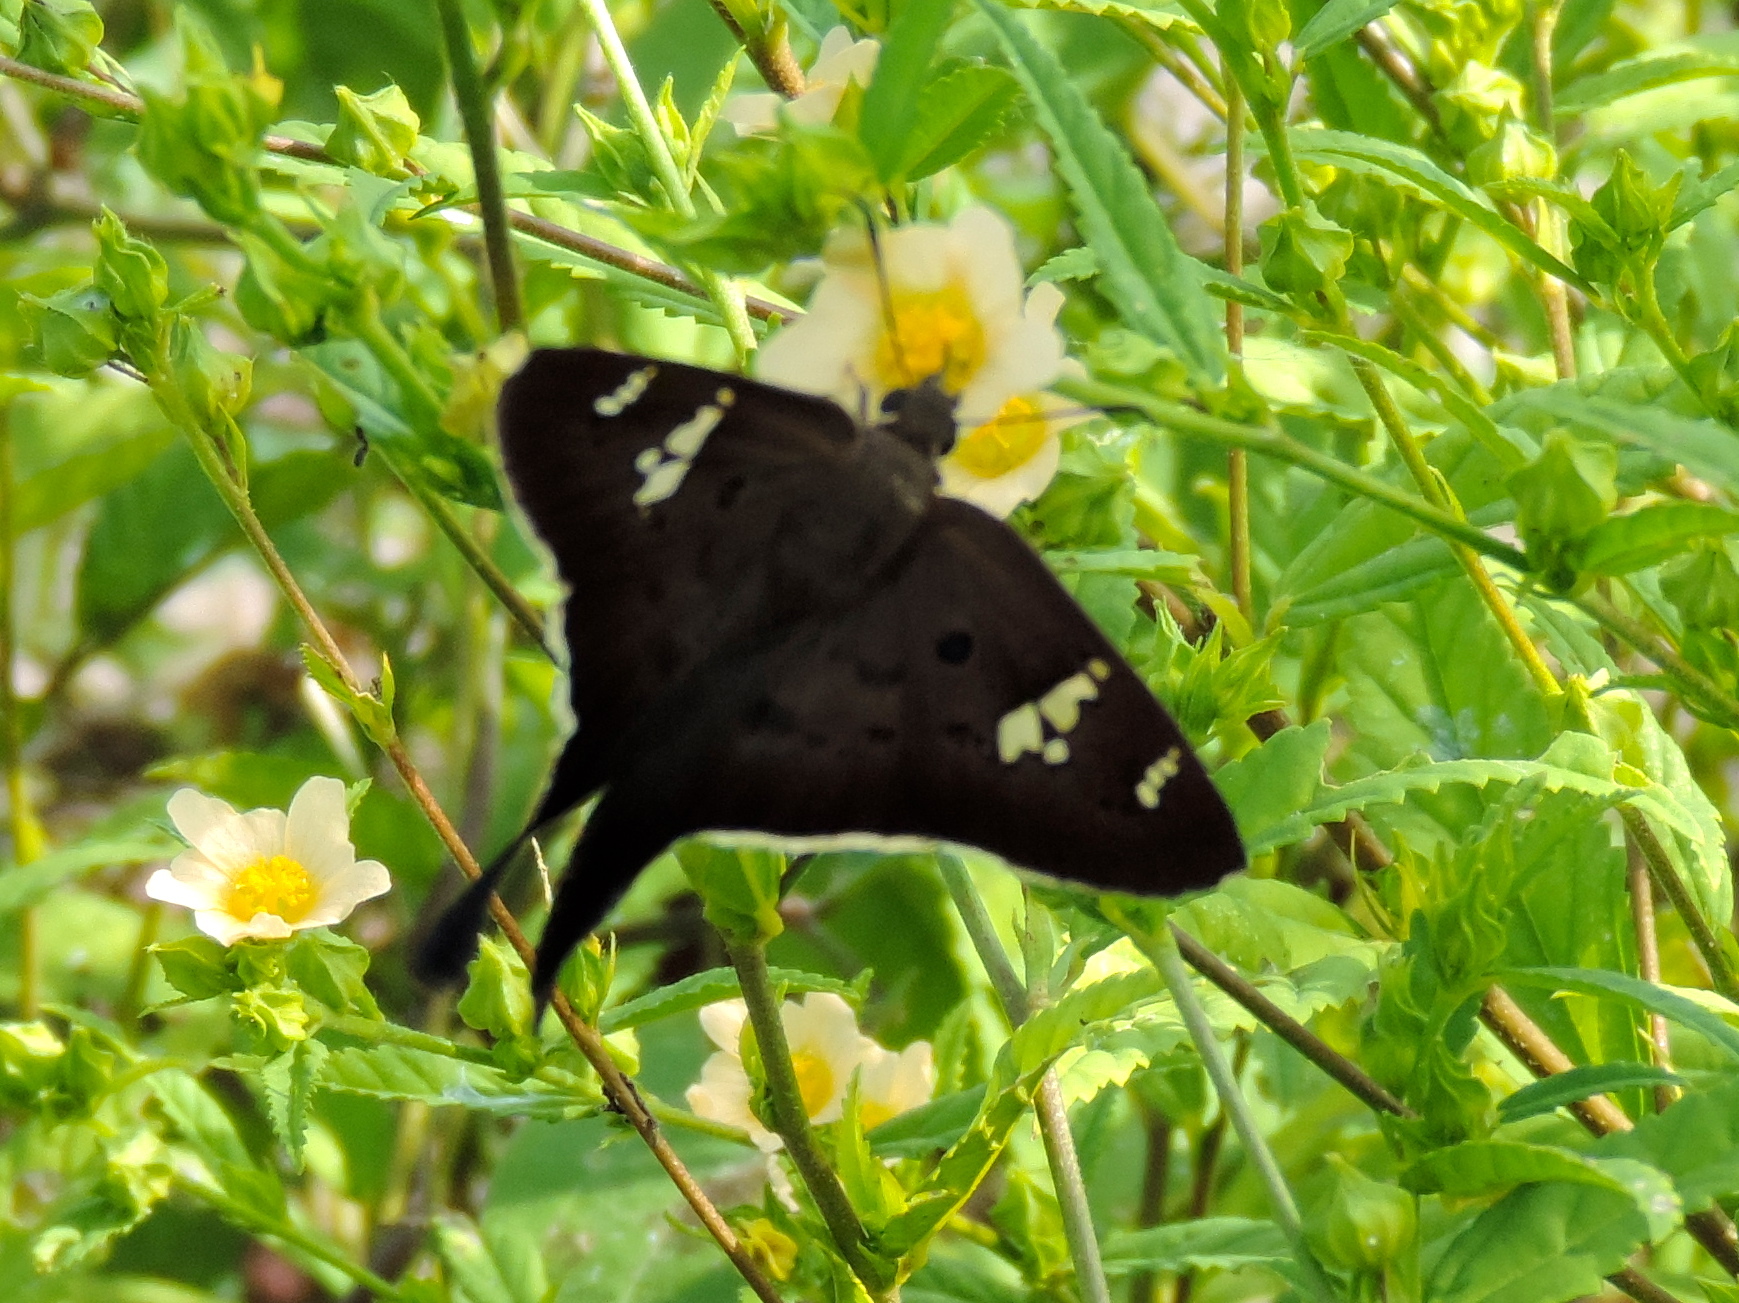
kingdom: Animalia
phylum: Arthropoda
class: Insecta
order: Lepidoptera
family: Hesperiidae
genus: Ectomis
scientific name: Ectomis
